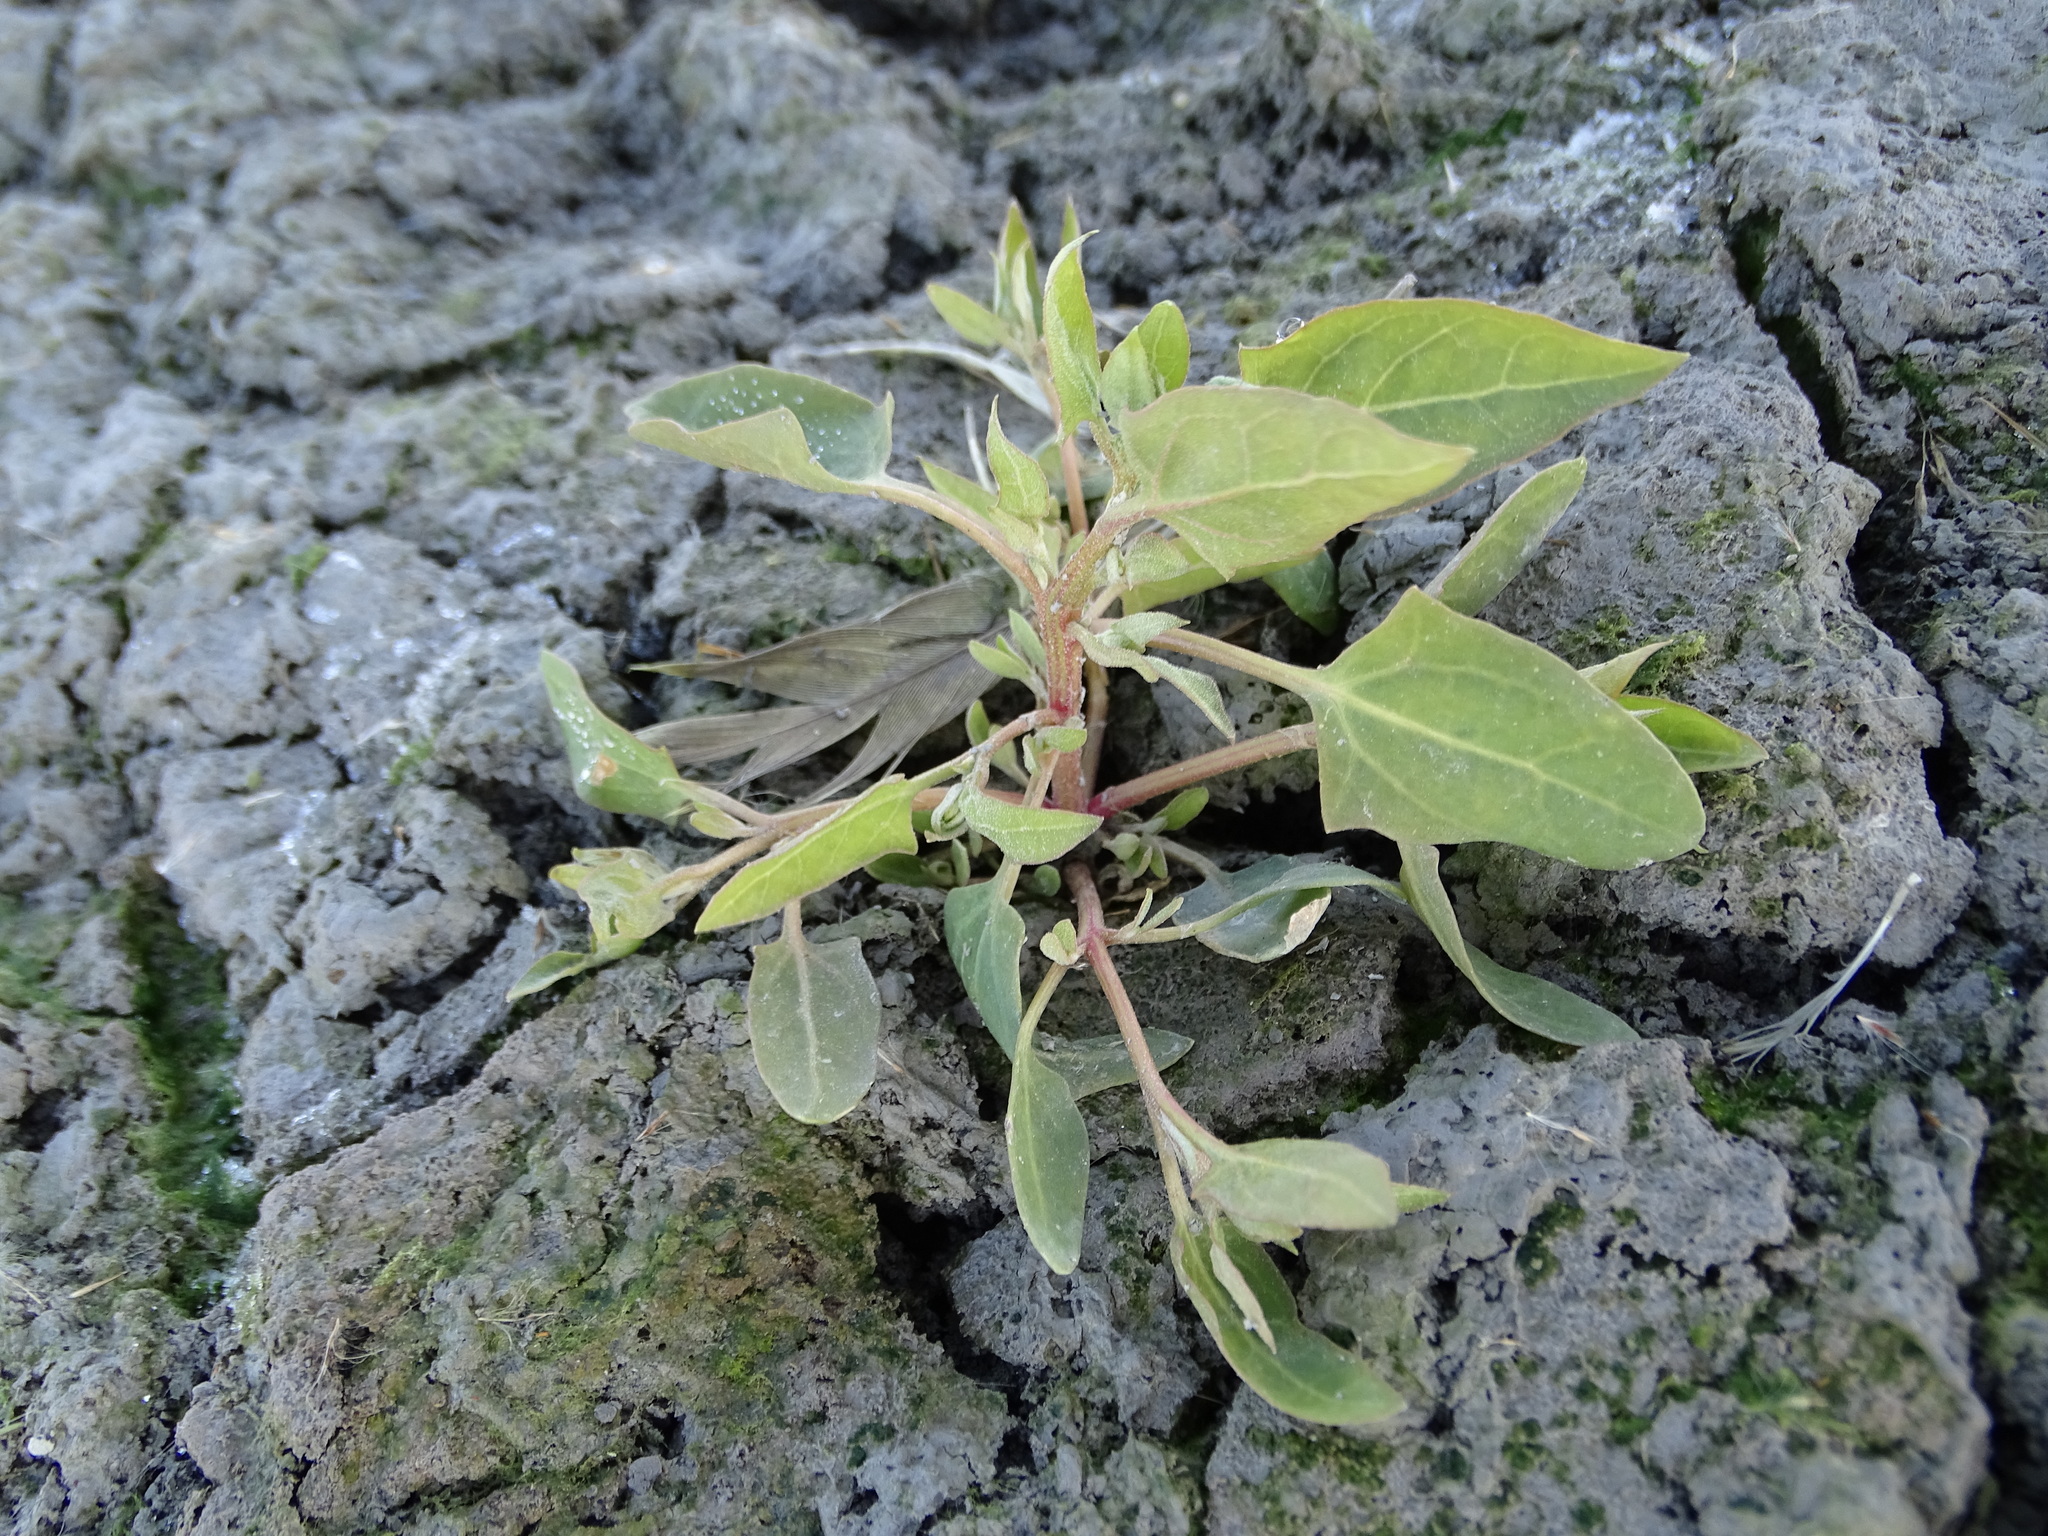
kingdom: Plantae
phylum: Tracheophyta
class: Magnoliopsida
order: Caryophyllales
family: Amaranthaceae
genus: Atriplex
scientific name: Atriplex prostrata
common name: Spear-leaved orache
